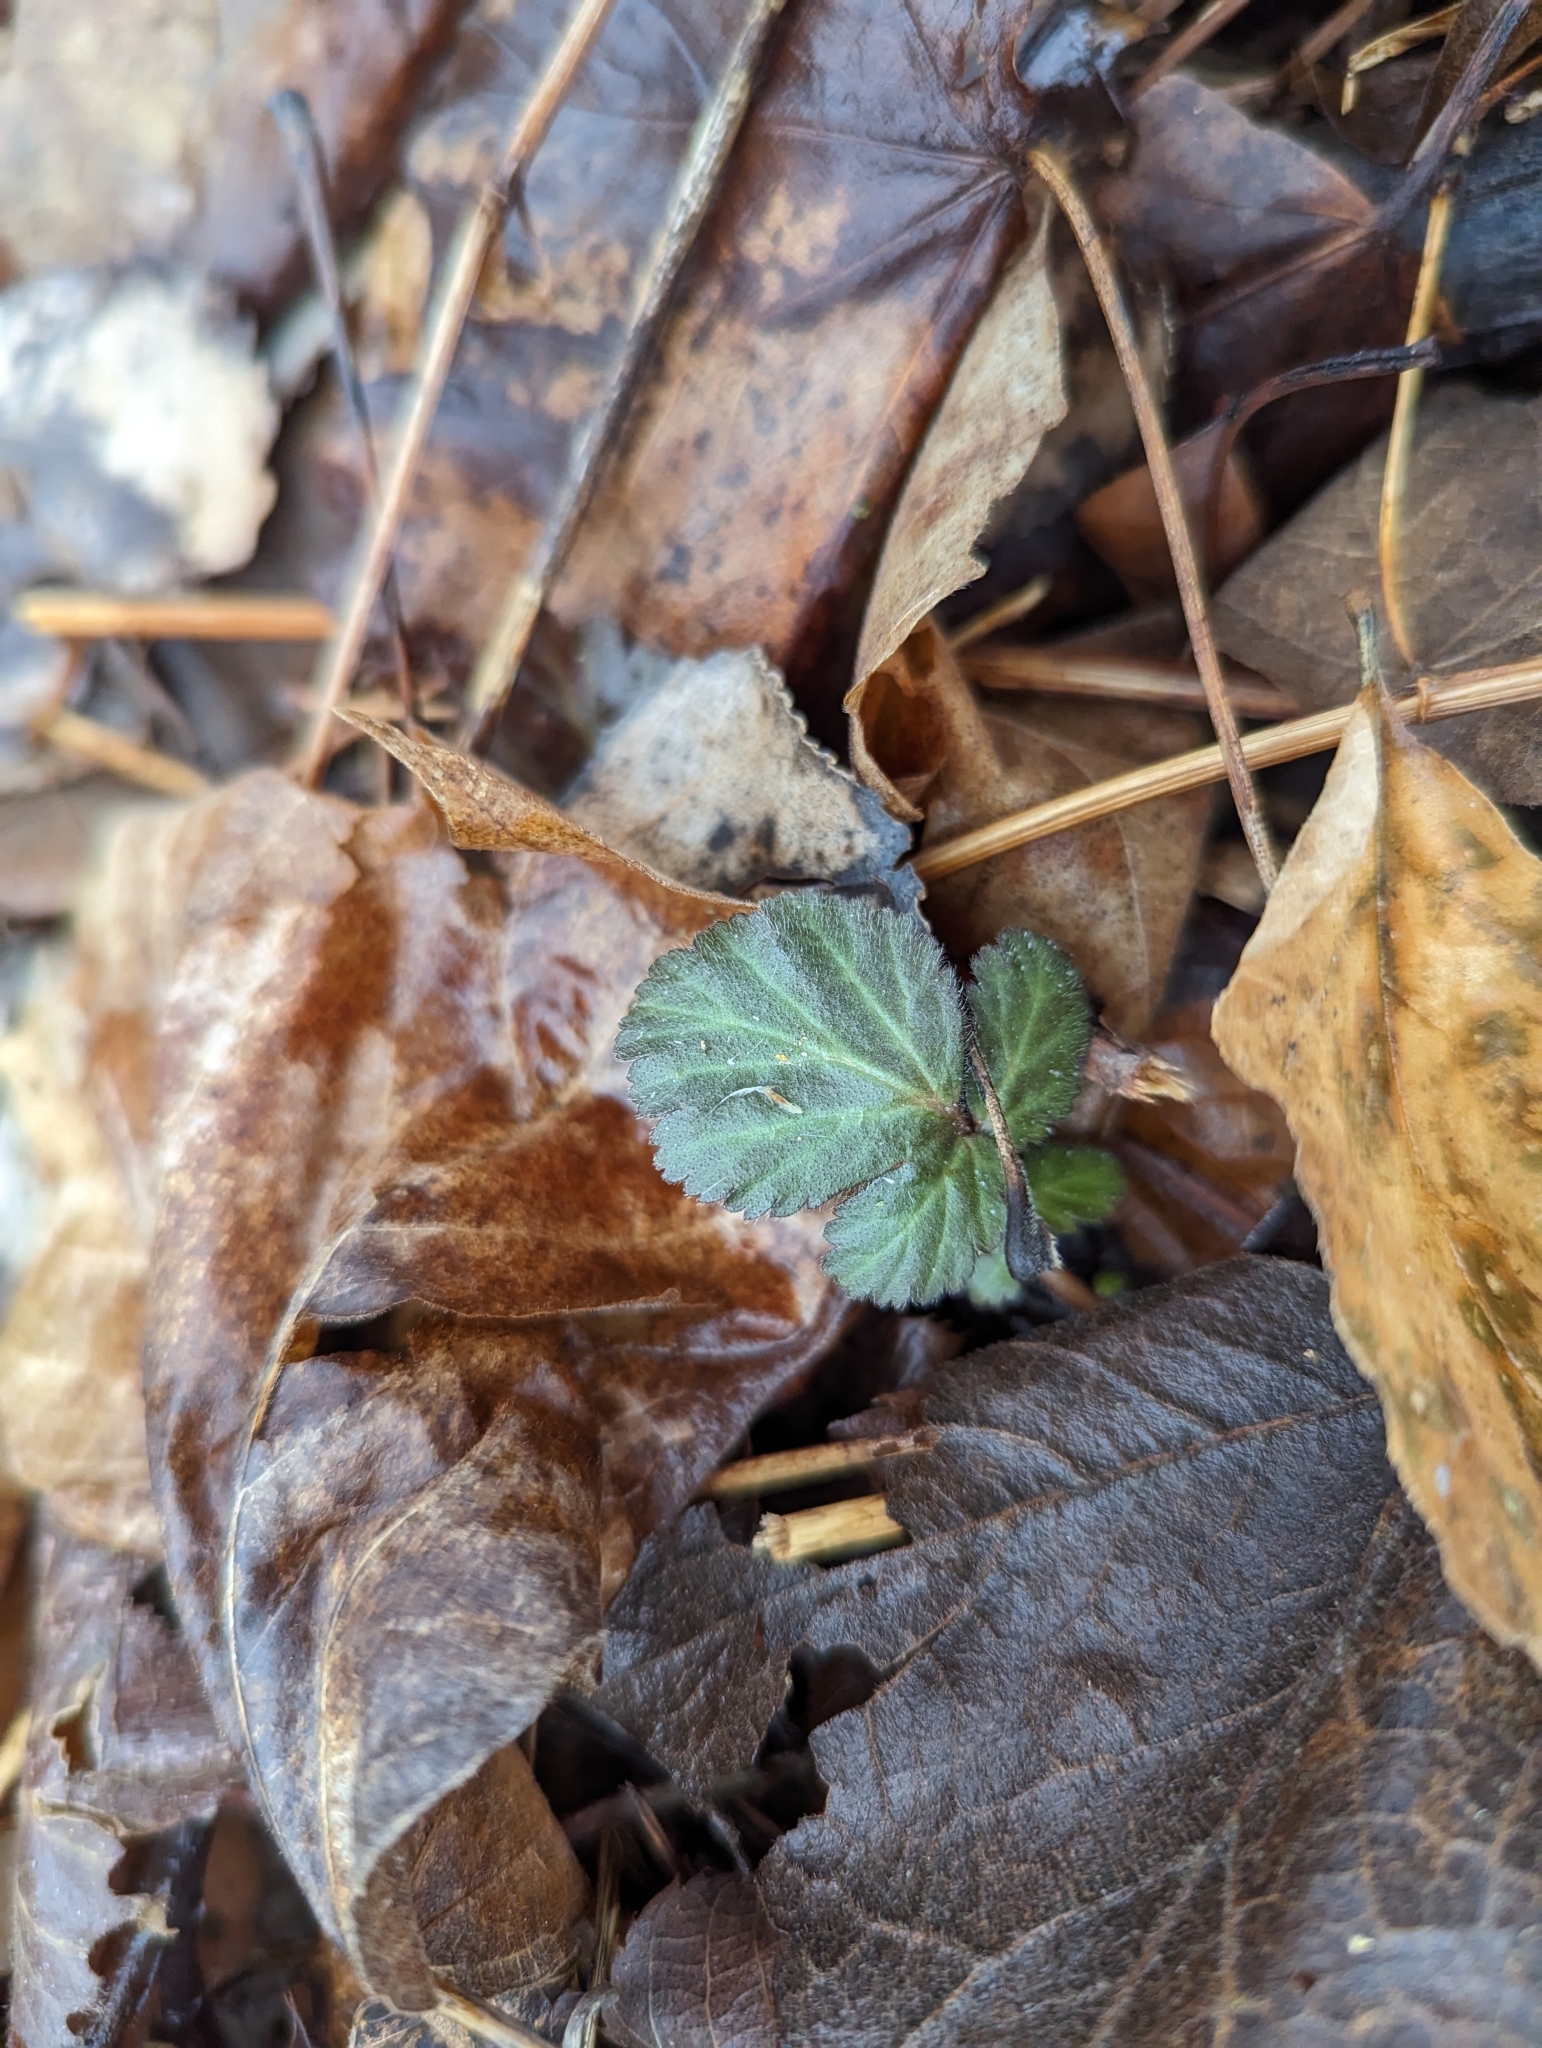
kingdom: Plantae
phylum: Tracheophyta
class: Magnoliopsida
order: Rosales
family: Rosaceae
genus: Geum
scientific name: Geum canadense
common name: White avens
